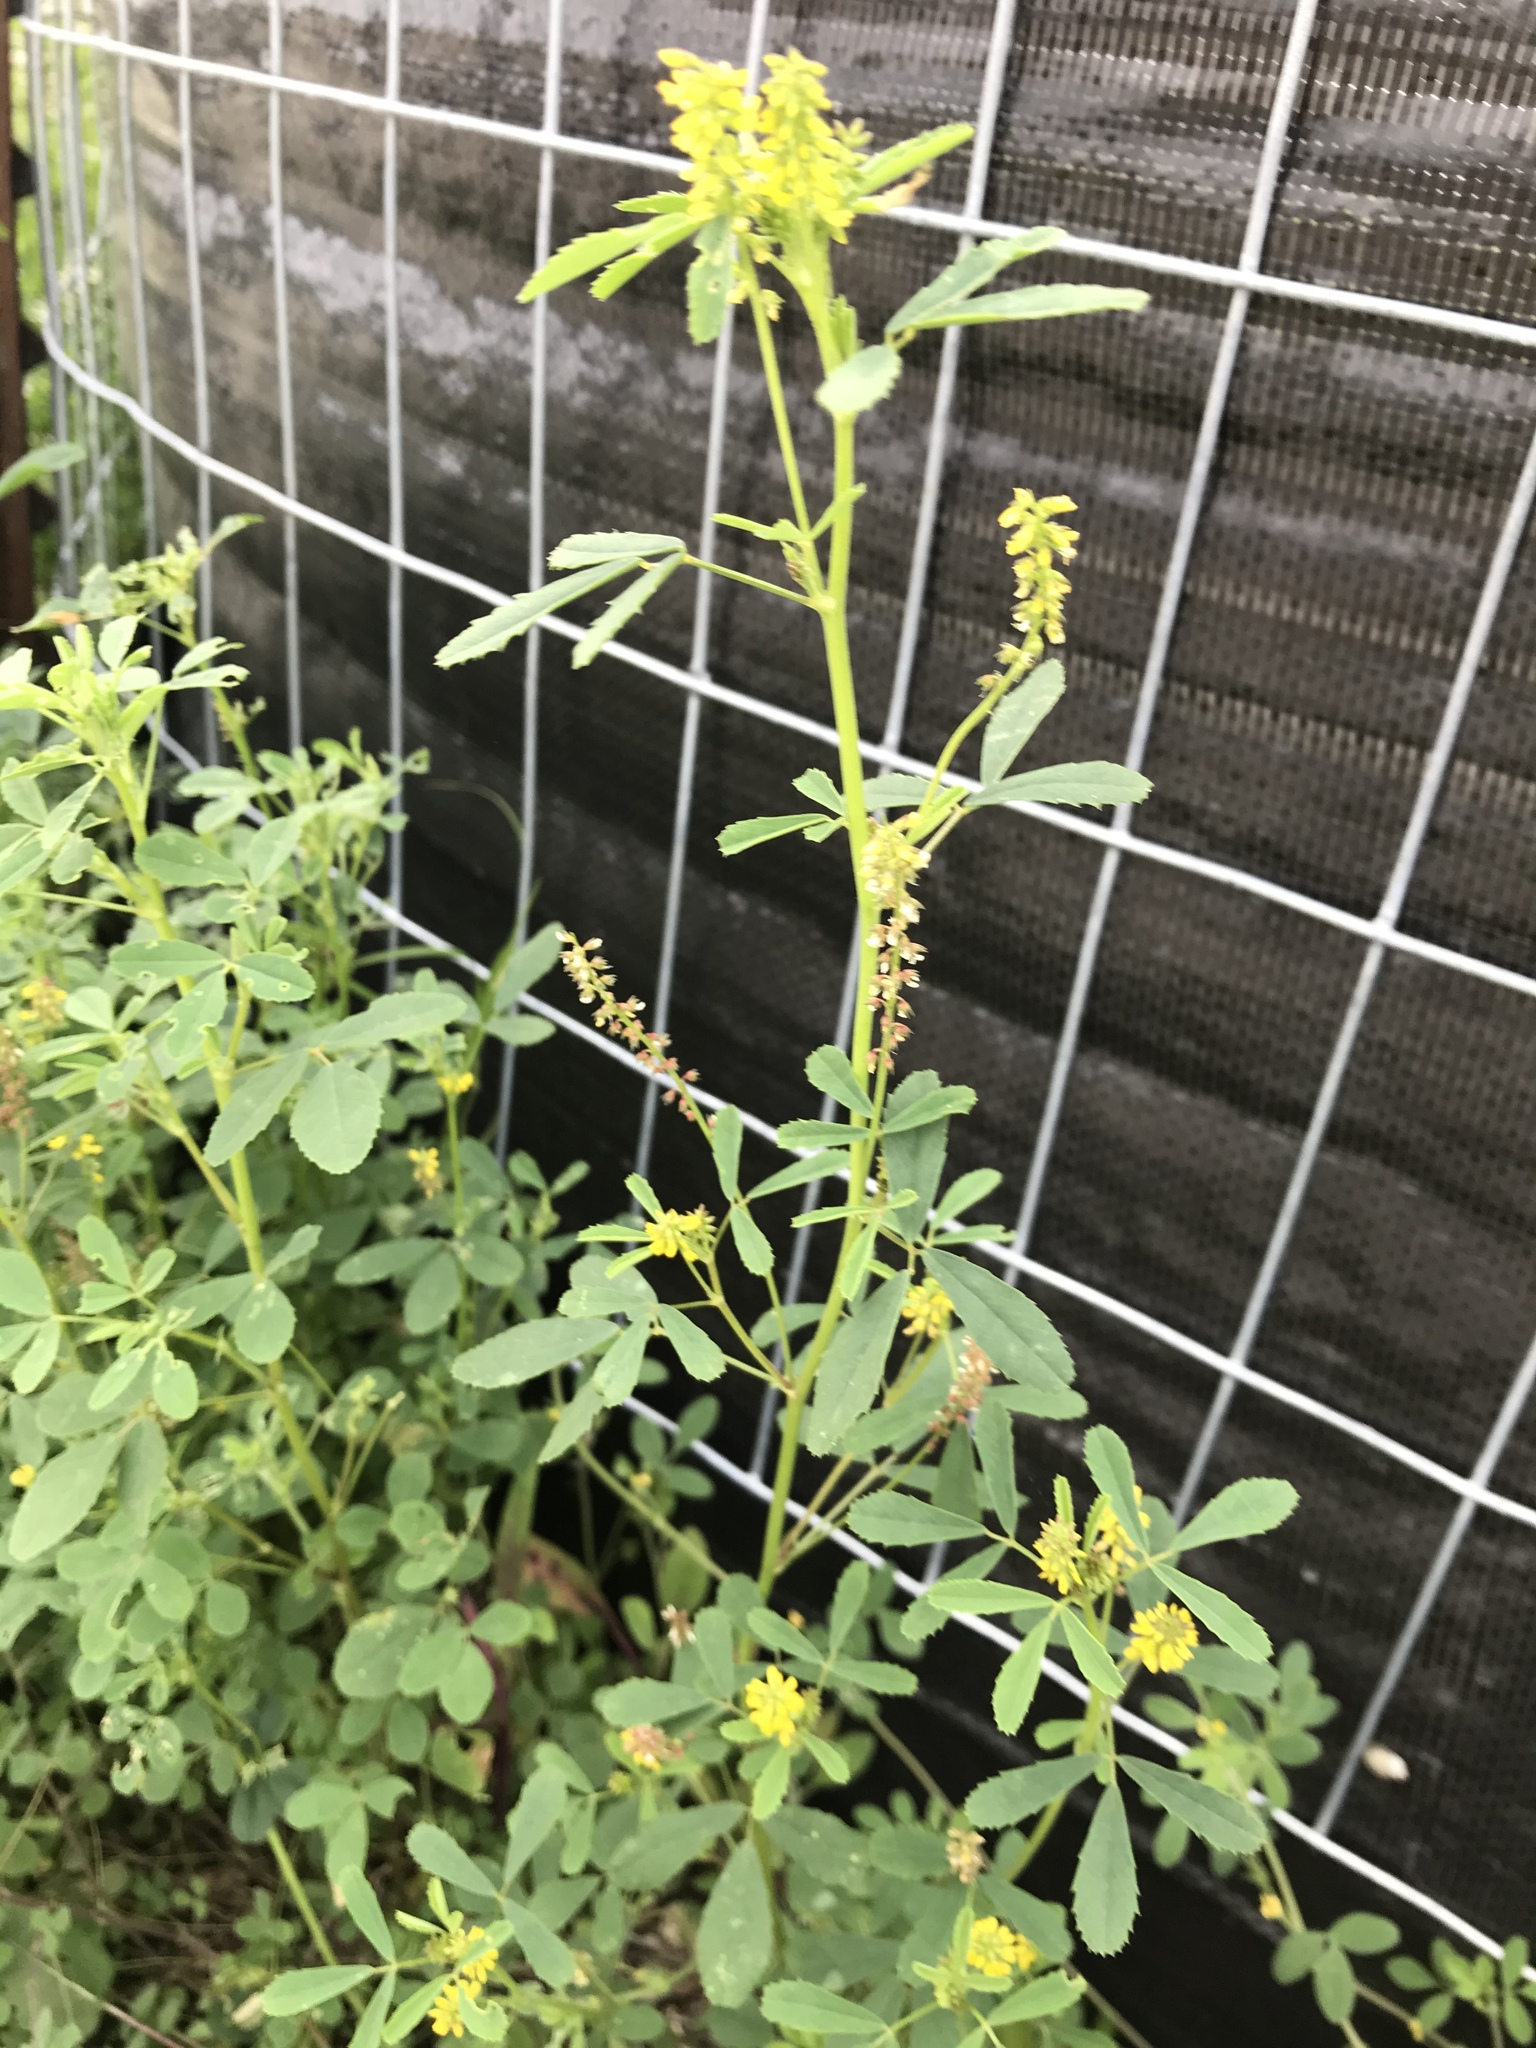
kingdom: Plantae
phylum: Tracheophyta
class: Magnoliopsida
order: Fabales
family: Fabaceae
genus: Melilotus
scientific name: Melilotus indicus
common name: Small melilot
